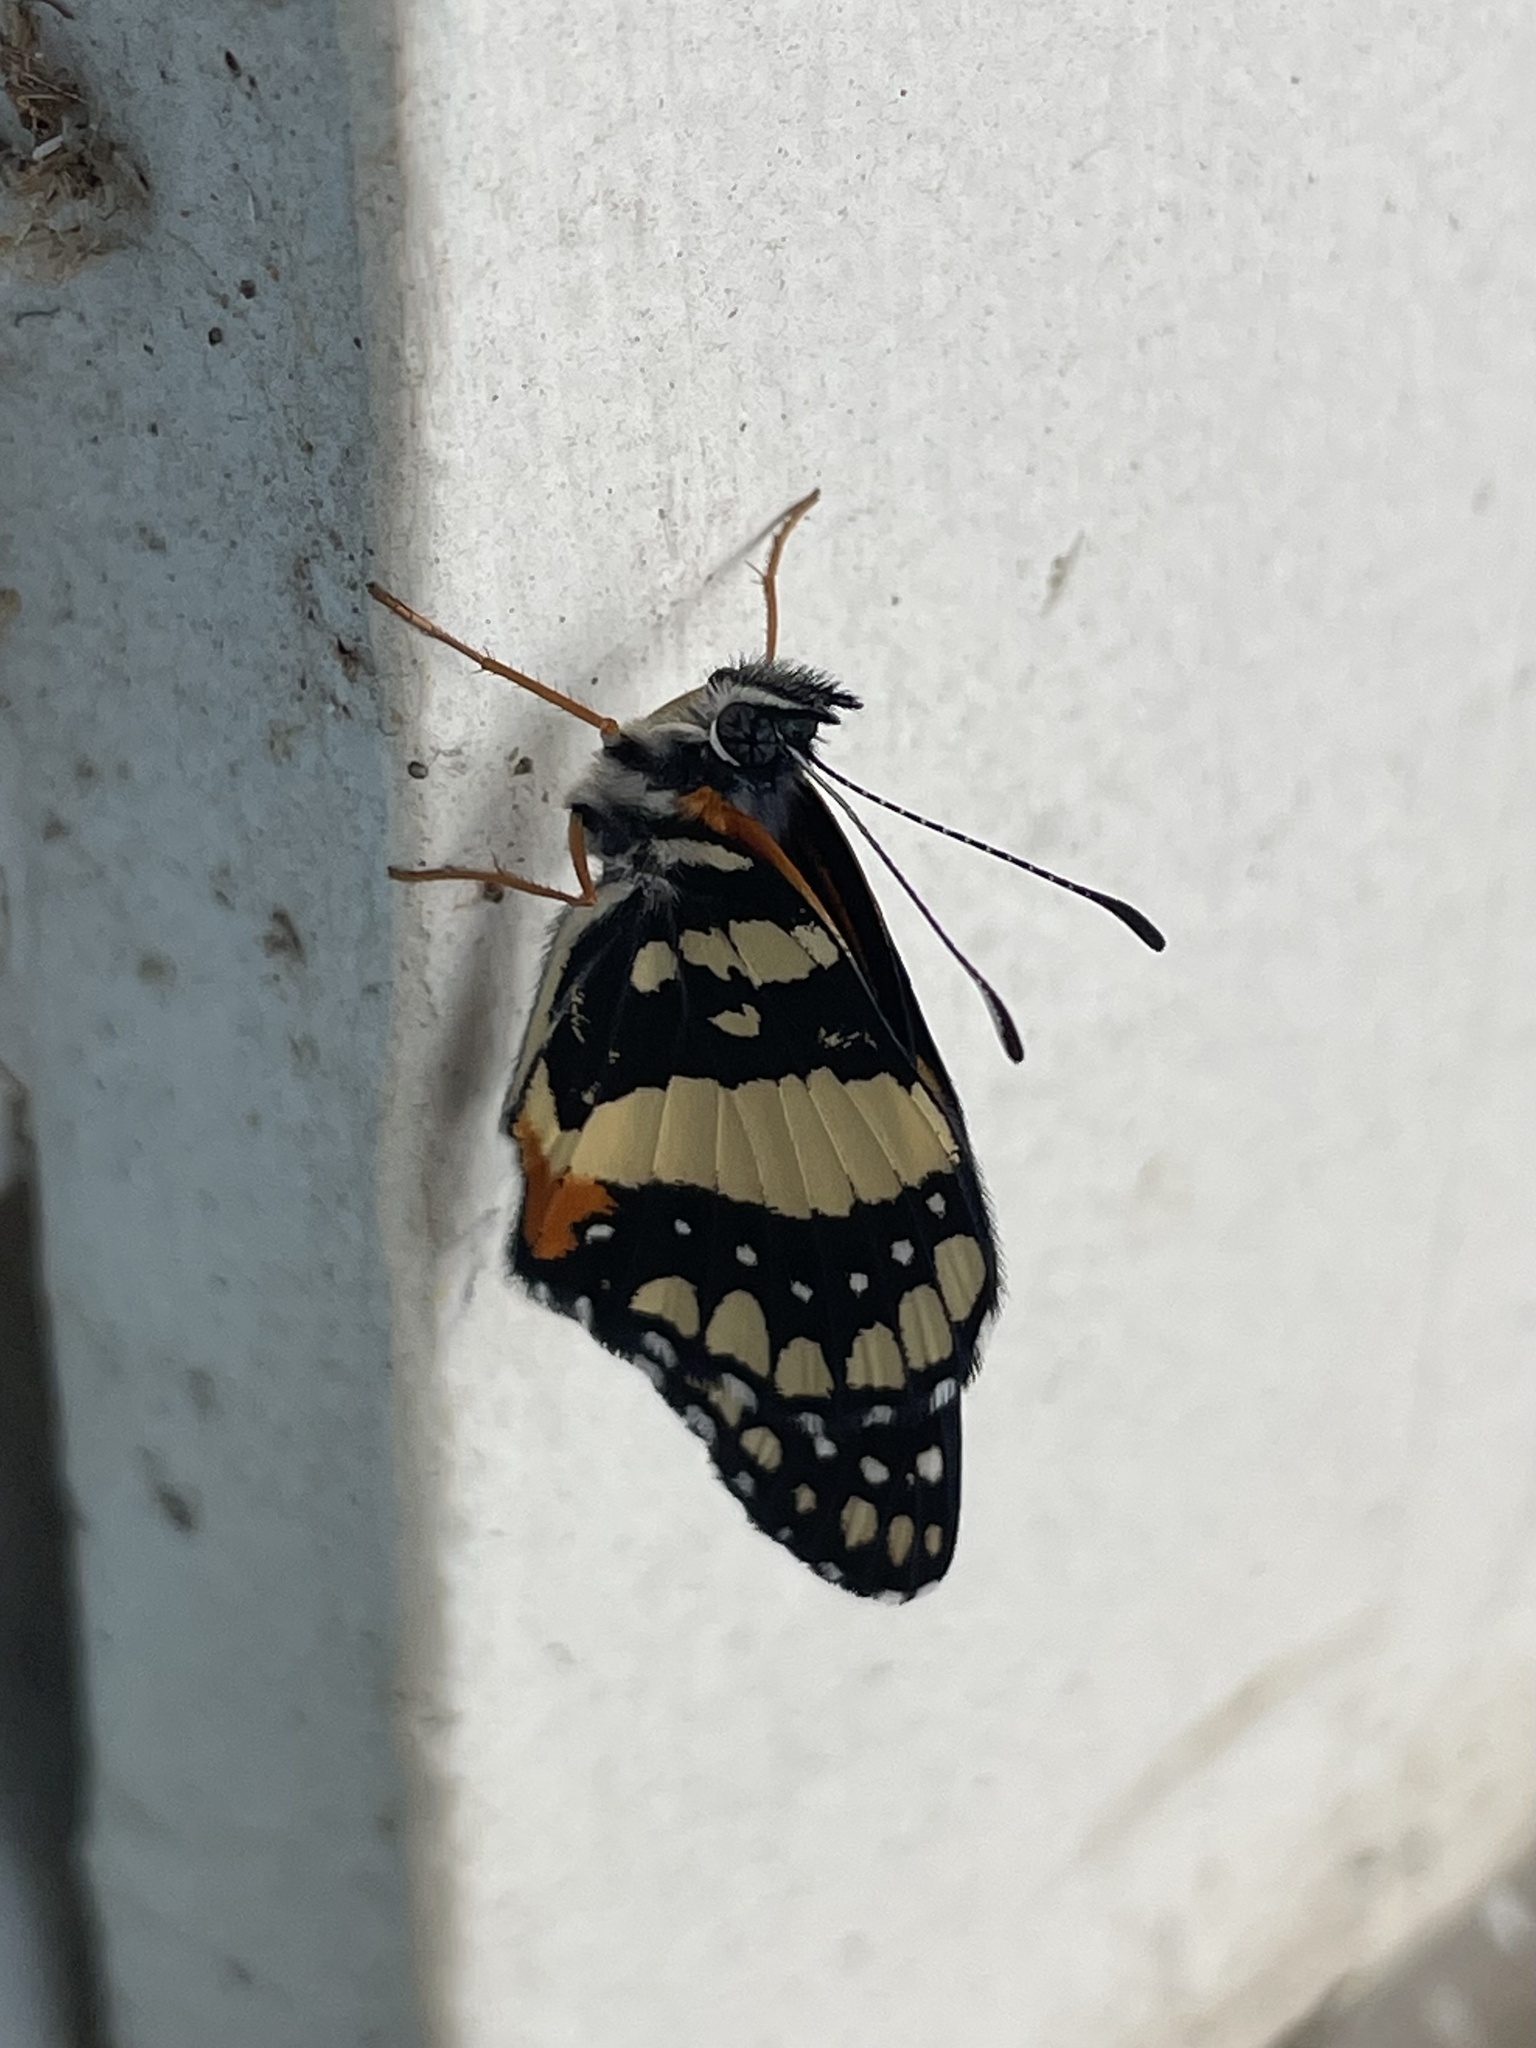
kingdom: Animalia
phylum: Arthropoda
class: Insecta
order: Lepidoptera
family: Nymphalidae
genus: Chlosyne
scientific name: Chlosyne lacinia
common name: Bordered patch
